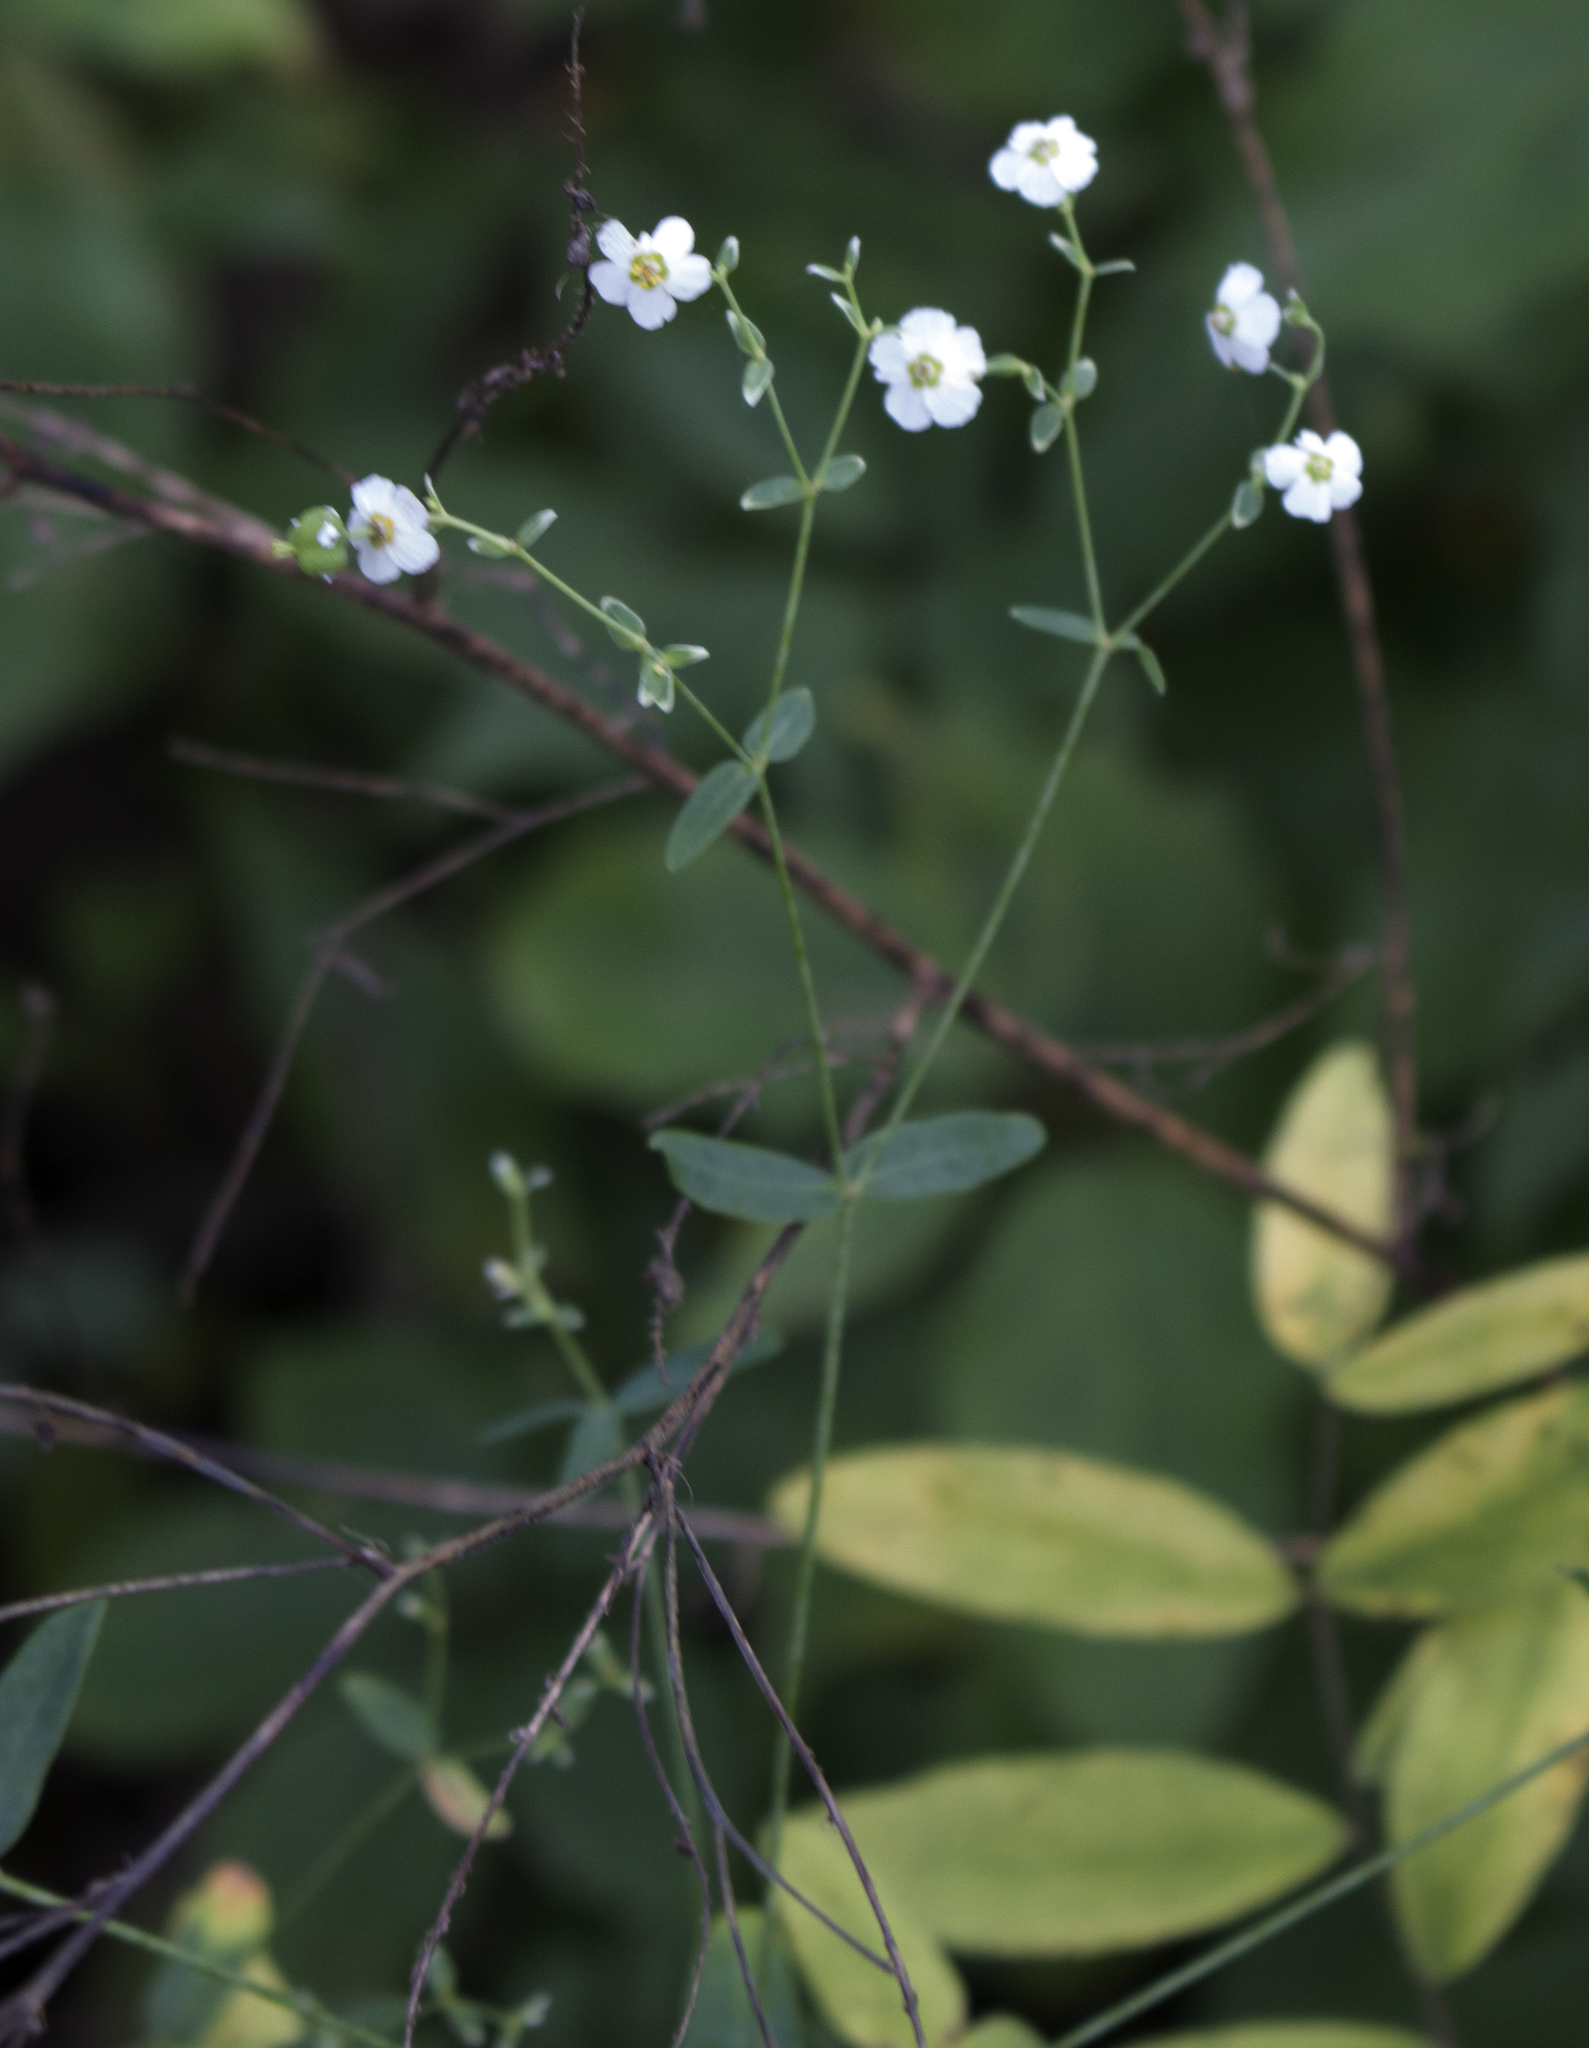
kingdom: Plantae
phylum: Tracheophyta
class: Magnoliopsida
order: Malpighiales
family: Euphorbiaceae
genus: Euphorbia
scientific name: Euphorbia corollata
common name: Flowering spurge
